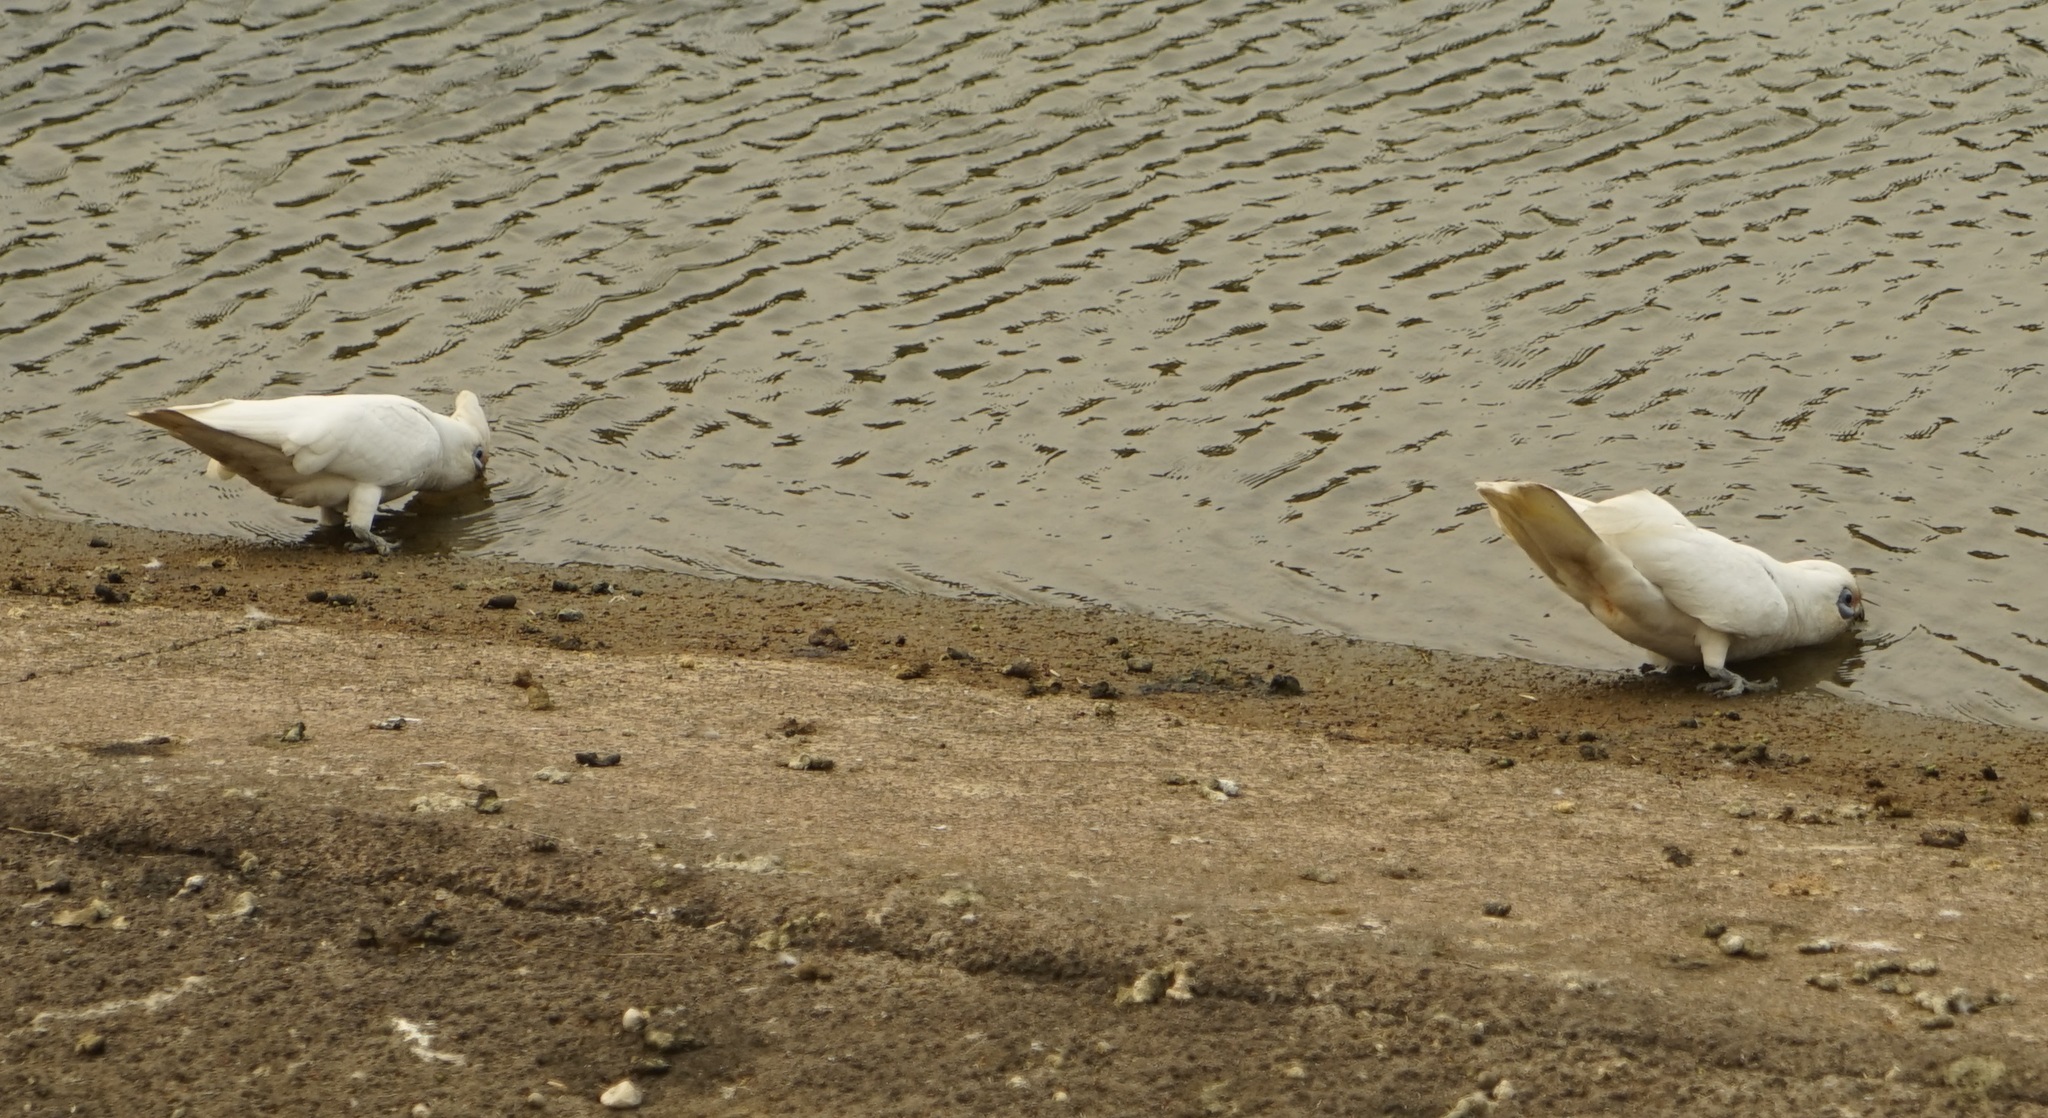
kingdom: Animalia
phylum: Chordata
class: Aves
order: Psittaciformes
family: Psittacidae
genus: Cacatua
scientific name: Cacatua sanguinea
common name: Little corella
